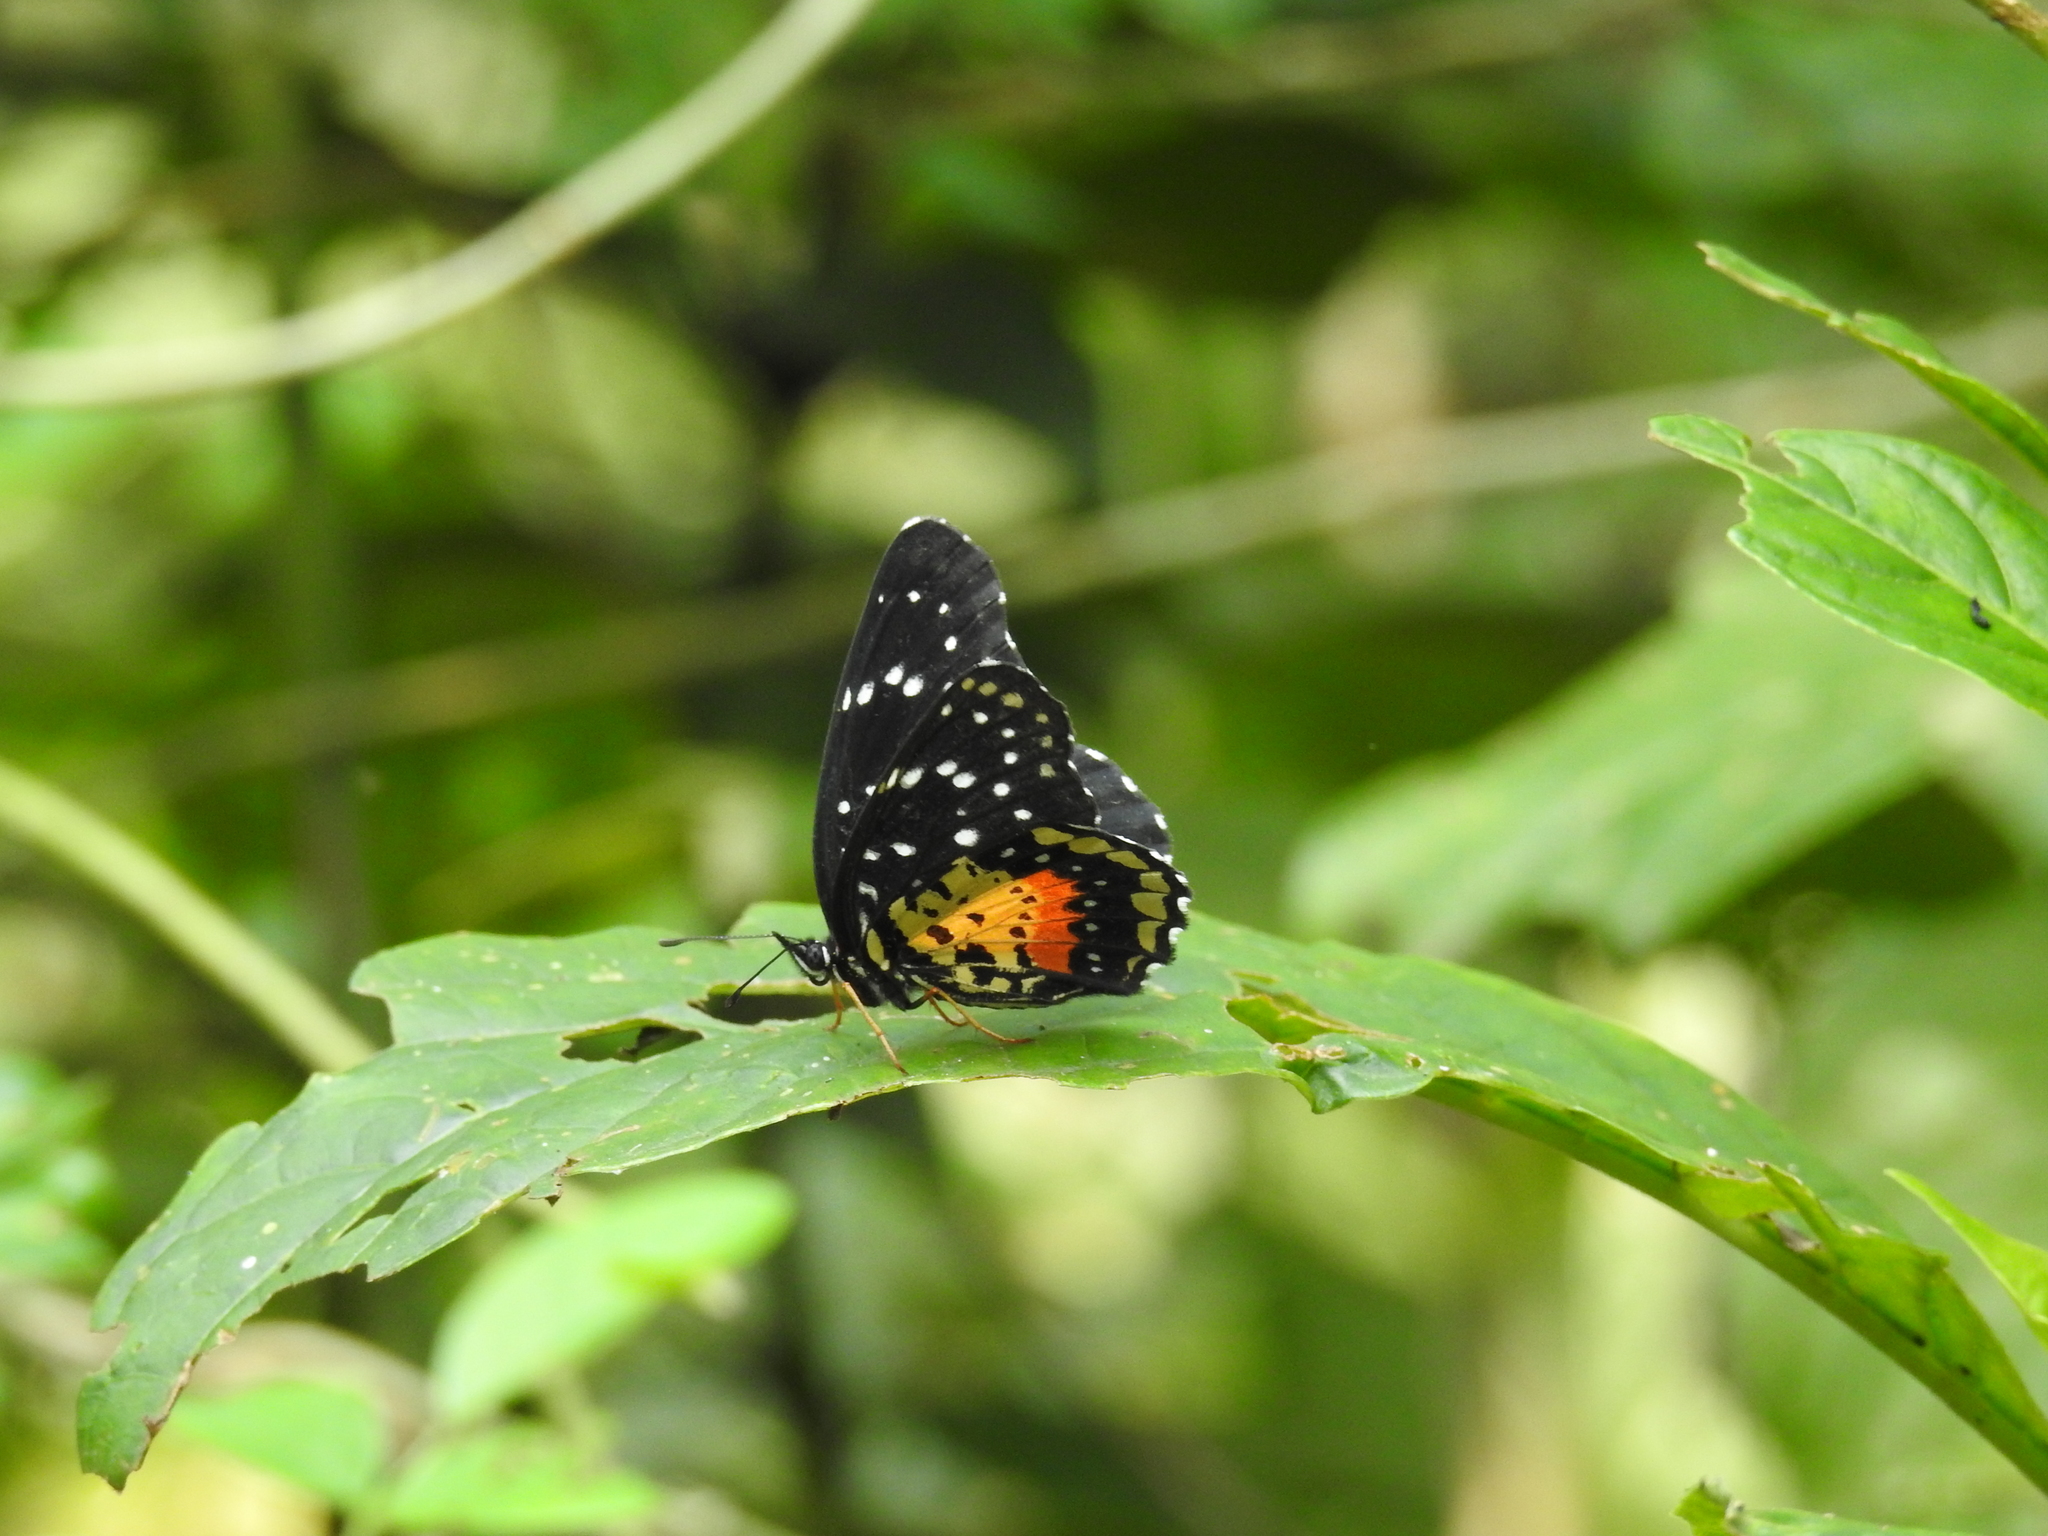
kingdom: Animalia
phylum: Arthropoda
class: Insecta
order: Lepidoptera
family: Nymphalidae
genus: Chlosyne
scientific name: Chlosyne janais
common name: Crimson patch
